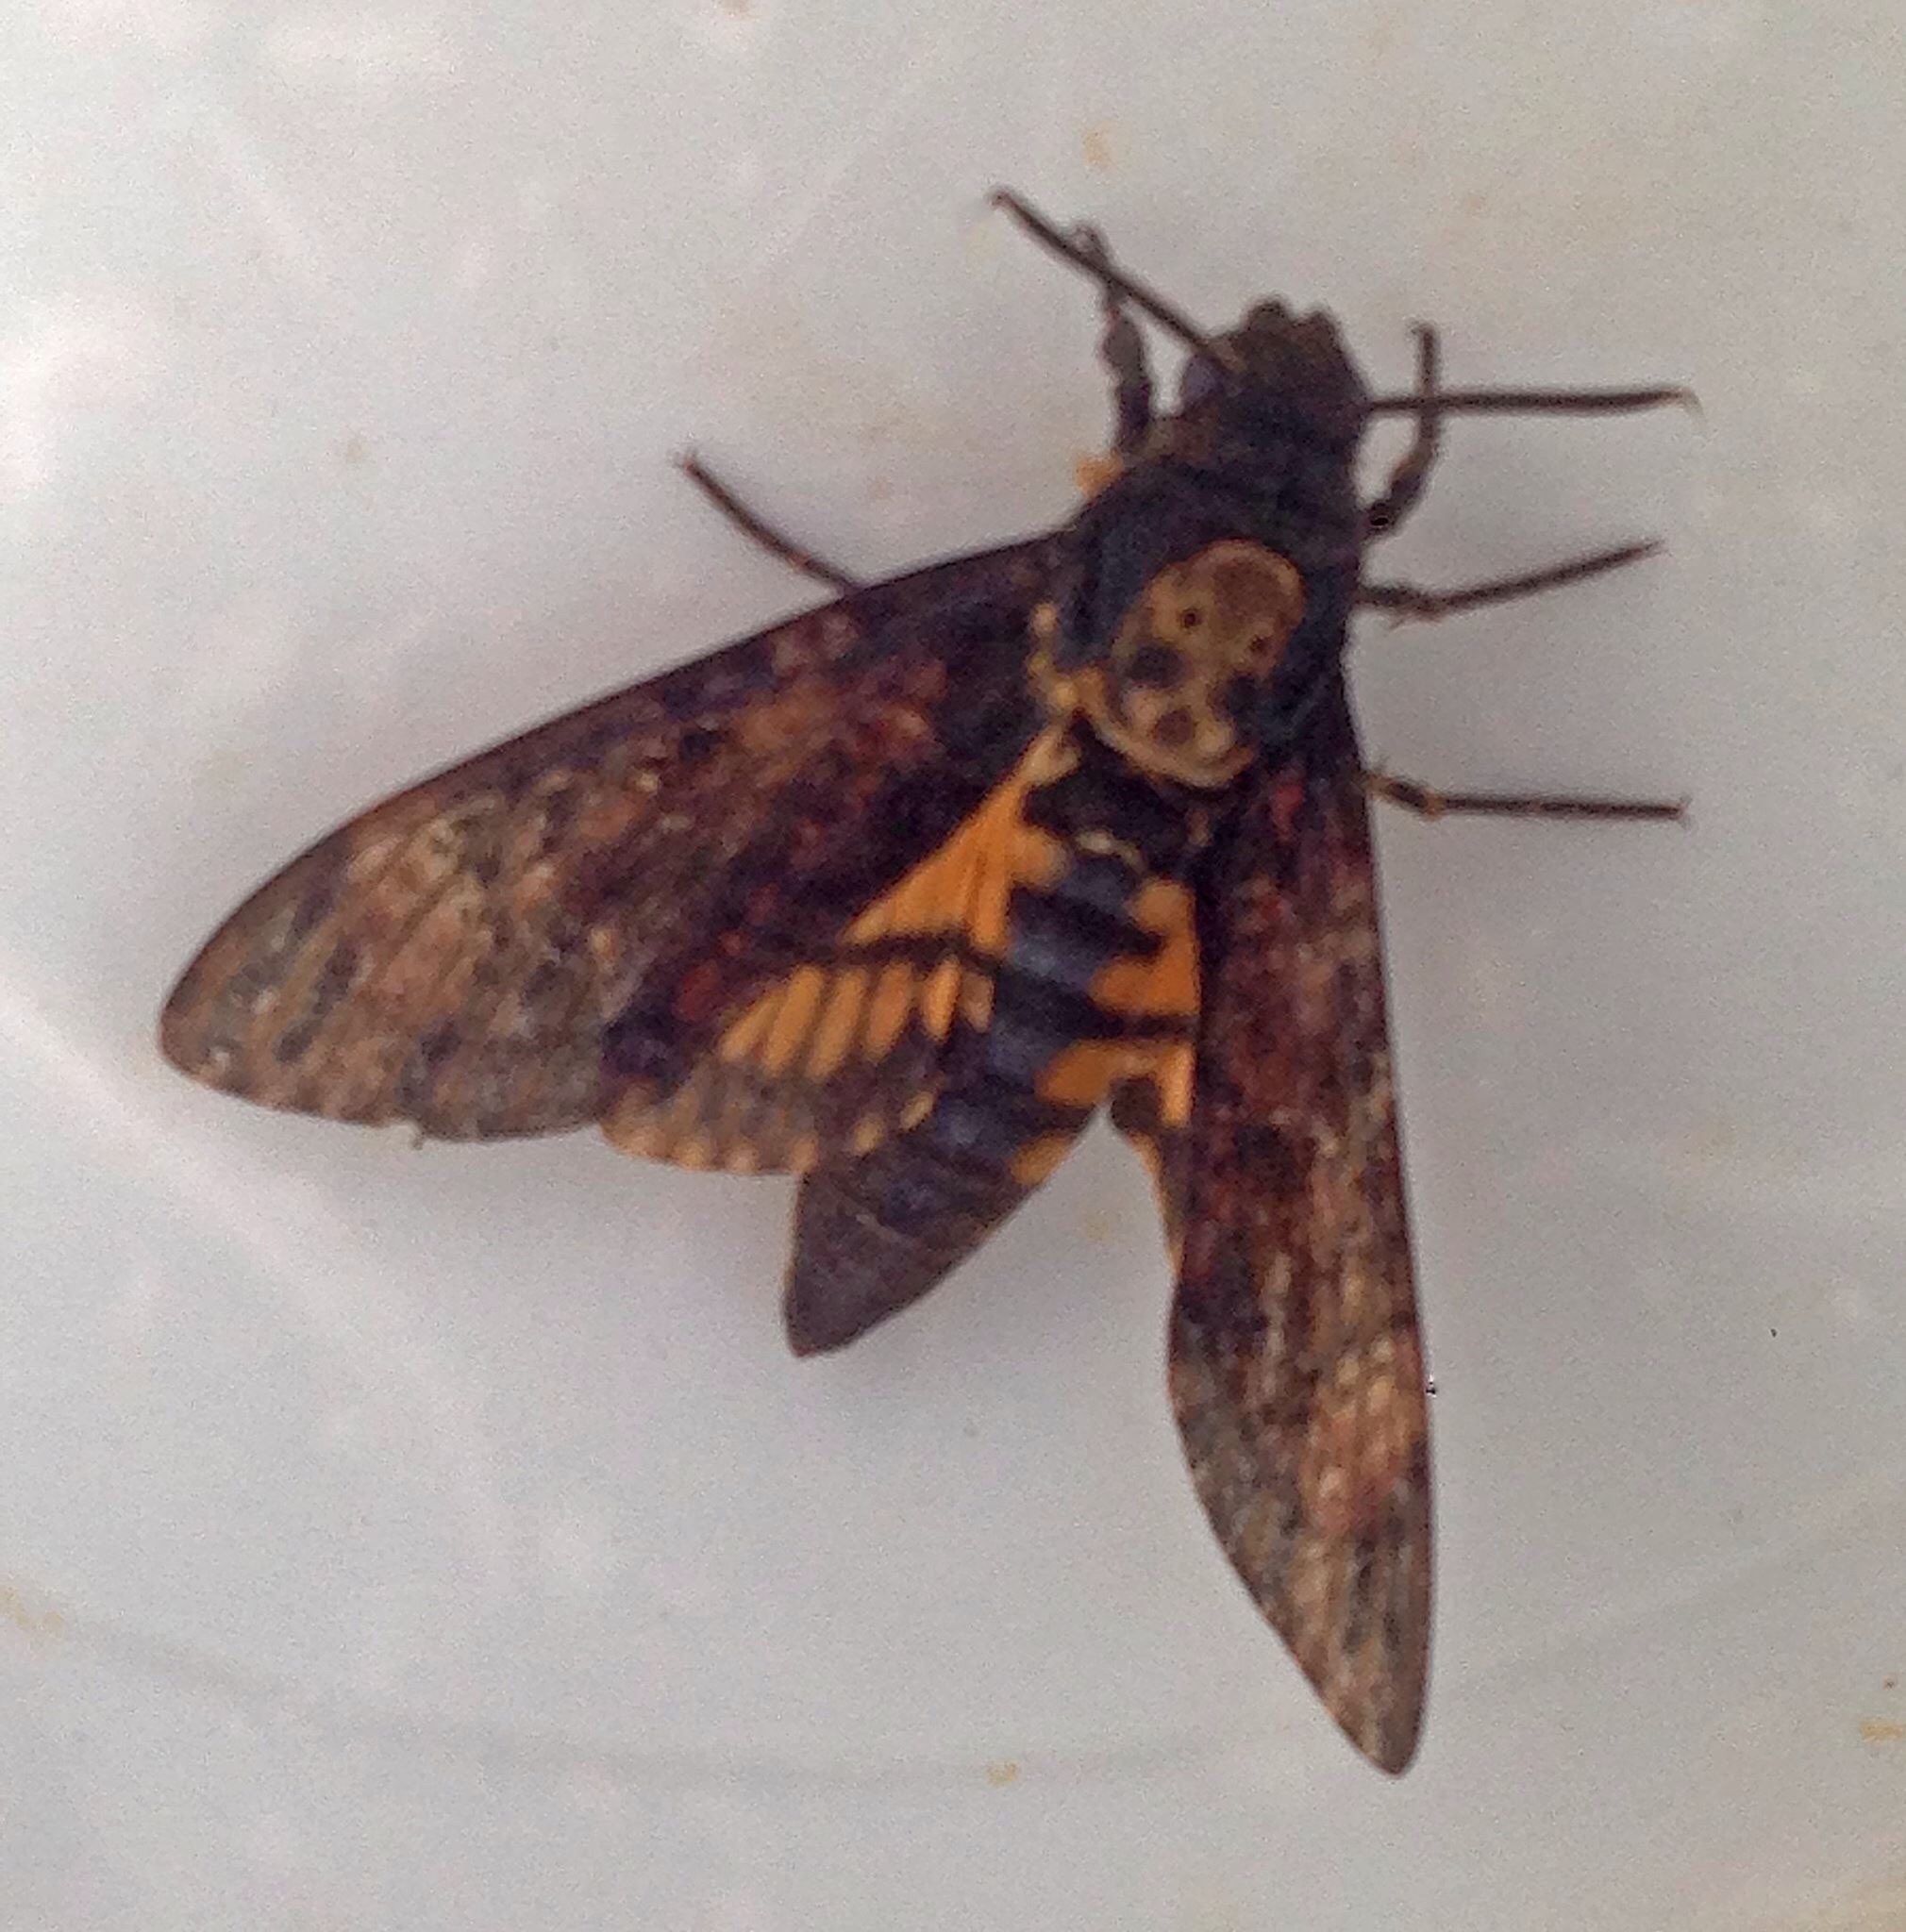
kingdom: Animalia
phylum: Arthropoda
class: Insecta
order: Lepidoptera
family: Sphingidae
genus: Acherontia
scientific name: Acherontia atropos
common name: Death's-head hawk moth
